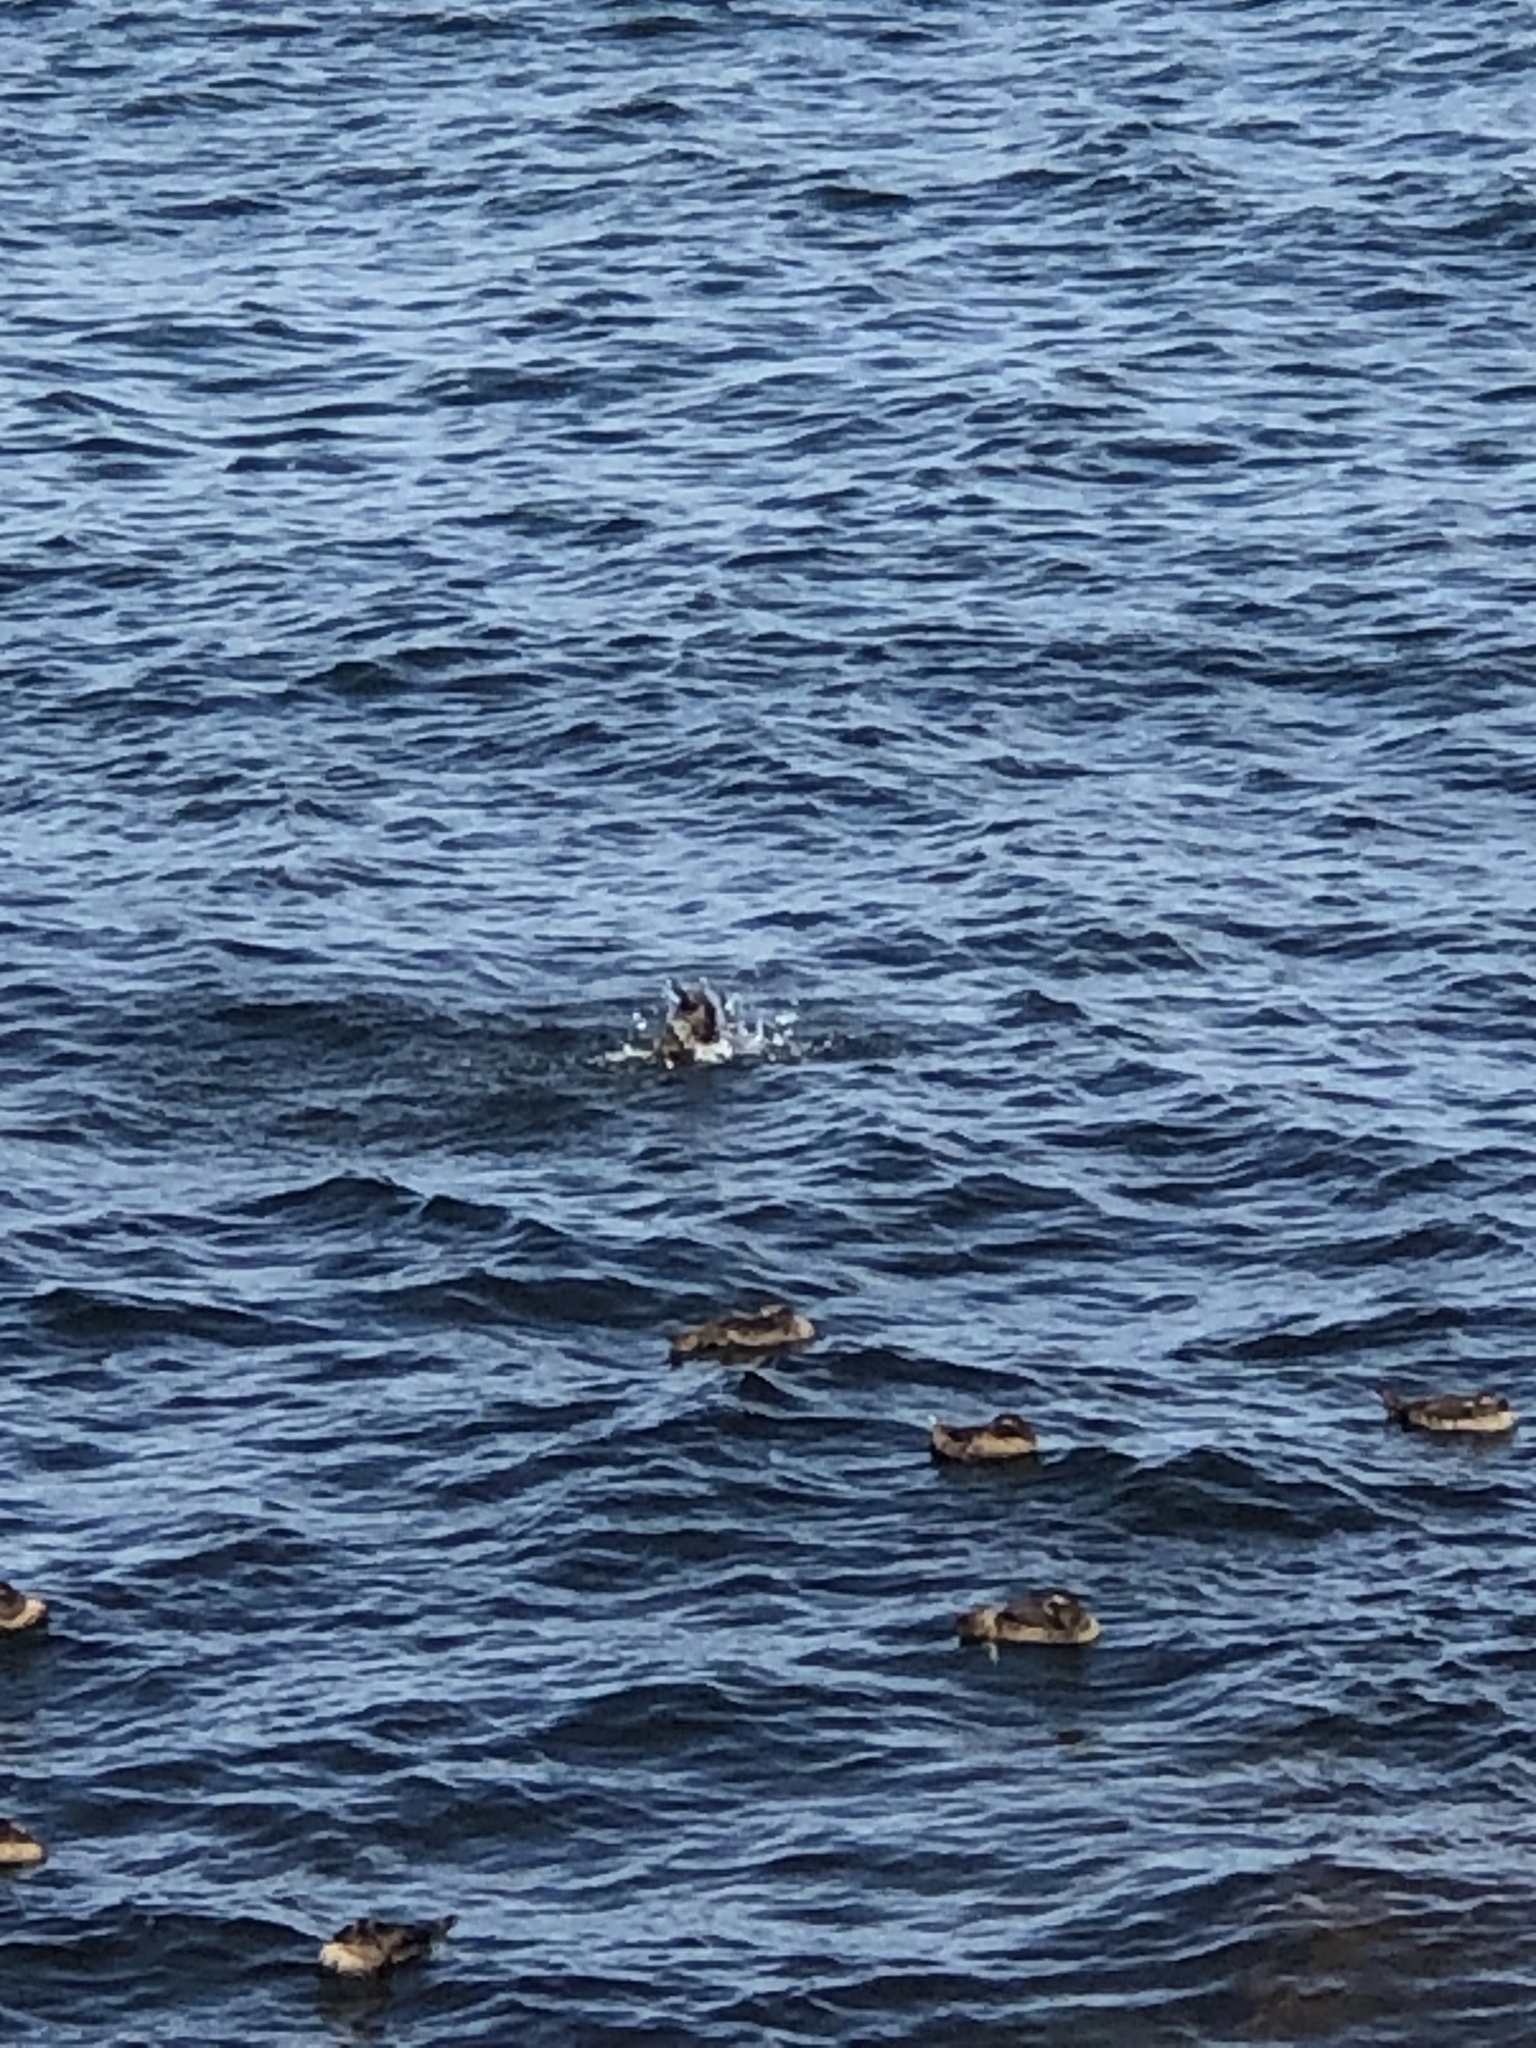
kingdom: Animalia
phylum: Chordata
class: Aves
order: Anseriformes
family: Anatidae
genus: Somateria
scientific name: Somateria mollissima
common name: Common eider
